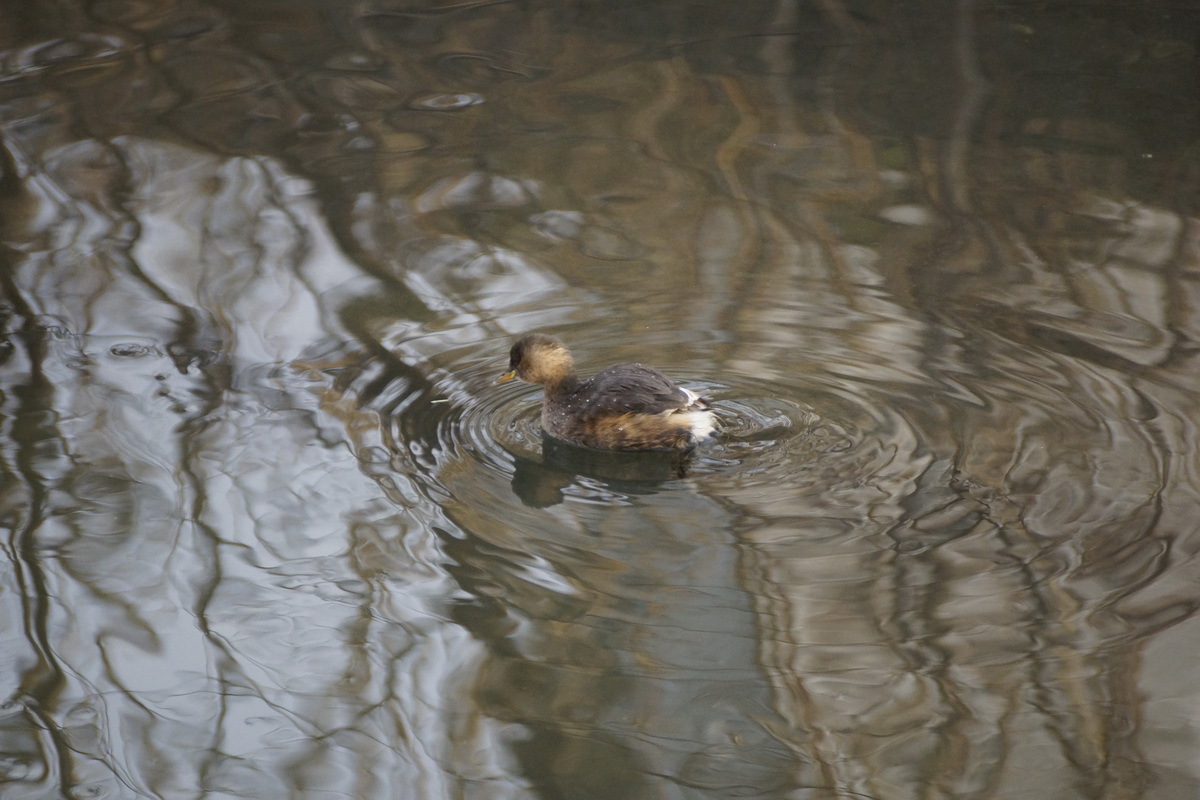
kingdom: Animalia
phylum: Chordata
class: Aves
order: Podicipediformes
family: Podicipedidae
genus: Tachybaptus
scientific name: Tachybaptus ruficollis
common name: Little grebe
